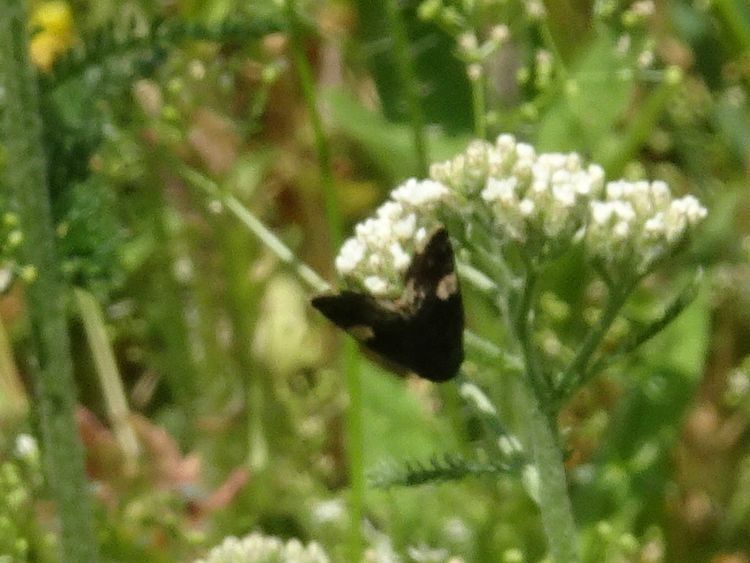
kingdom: Animalia
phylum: Arthropoda
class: Insecta
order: Lepidoptera
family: Erebidae
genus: Tyta
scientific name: Tyta luctuosa
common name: Four-spotted
